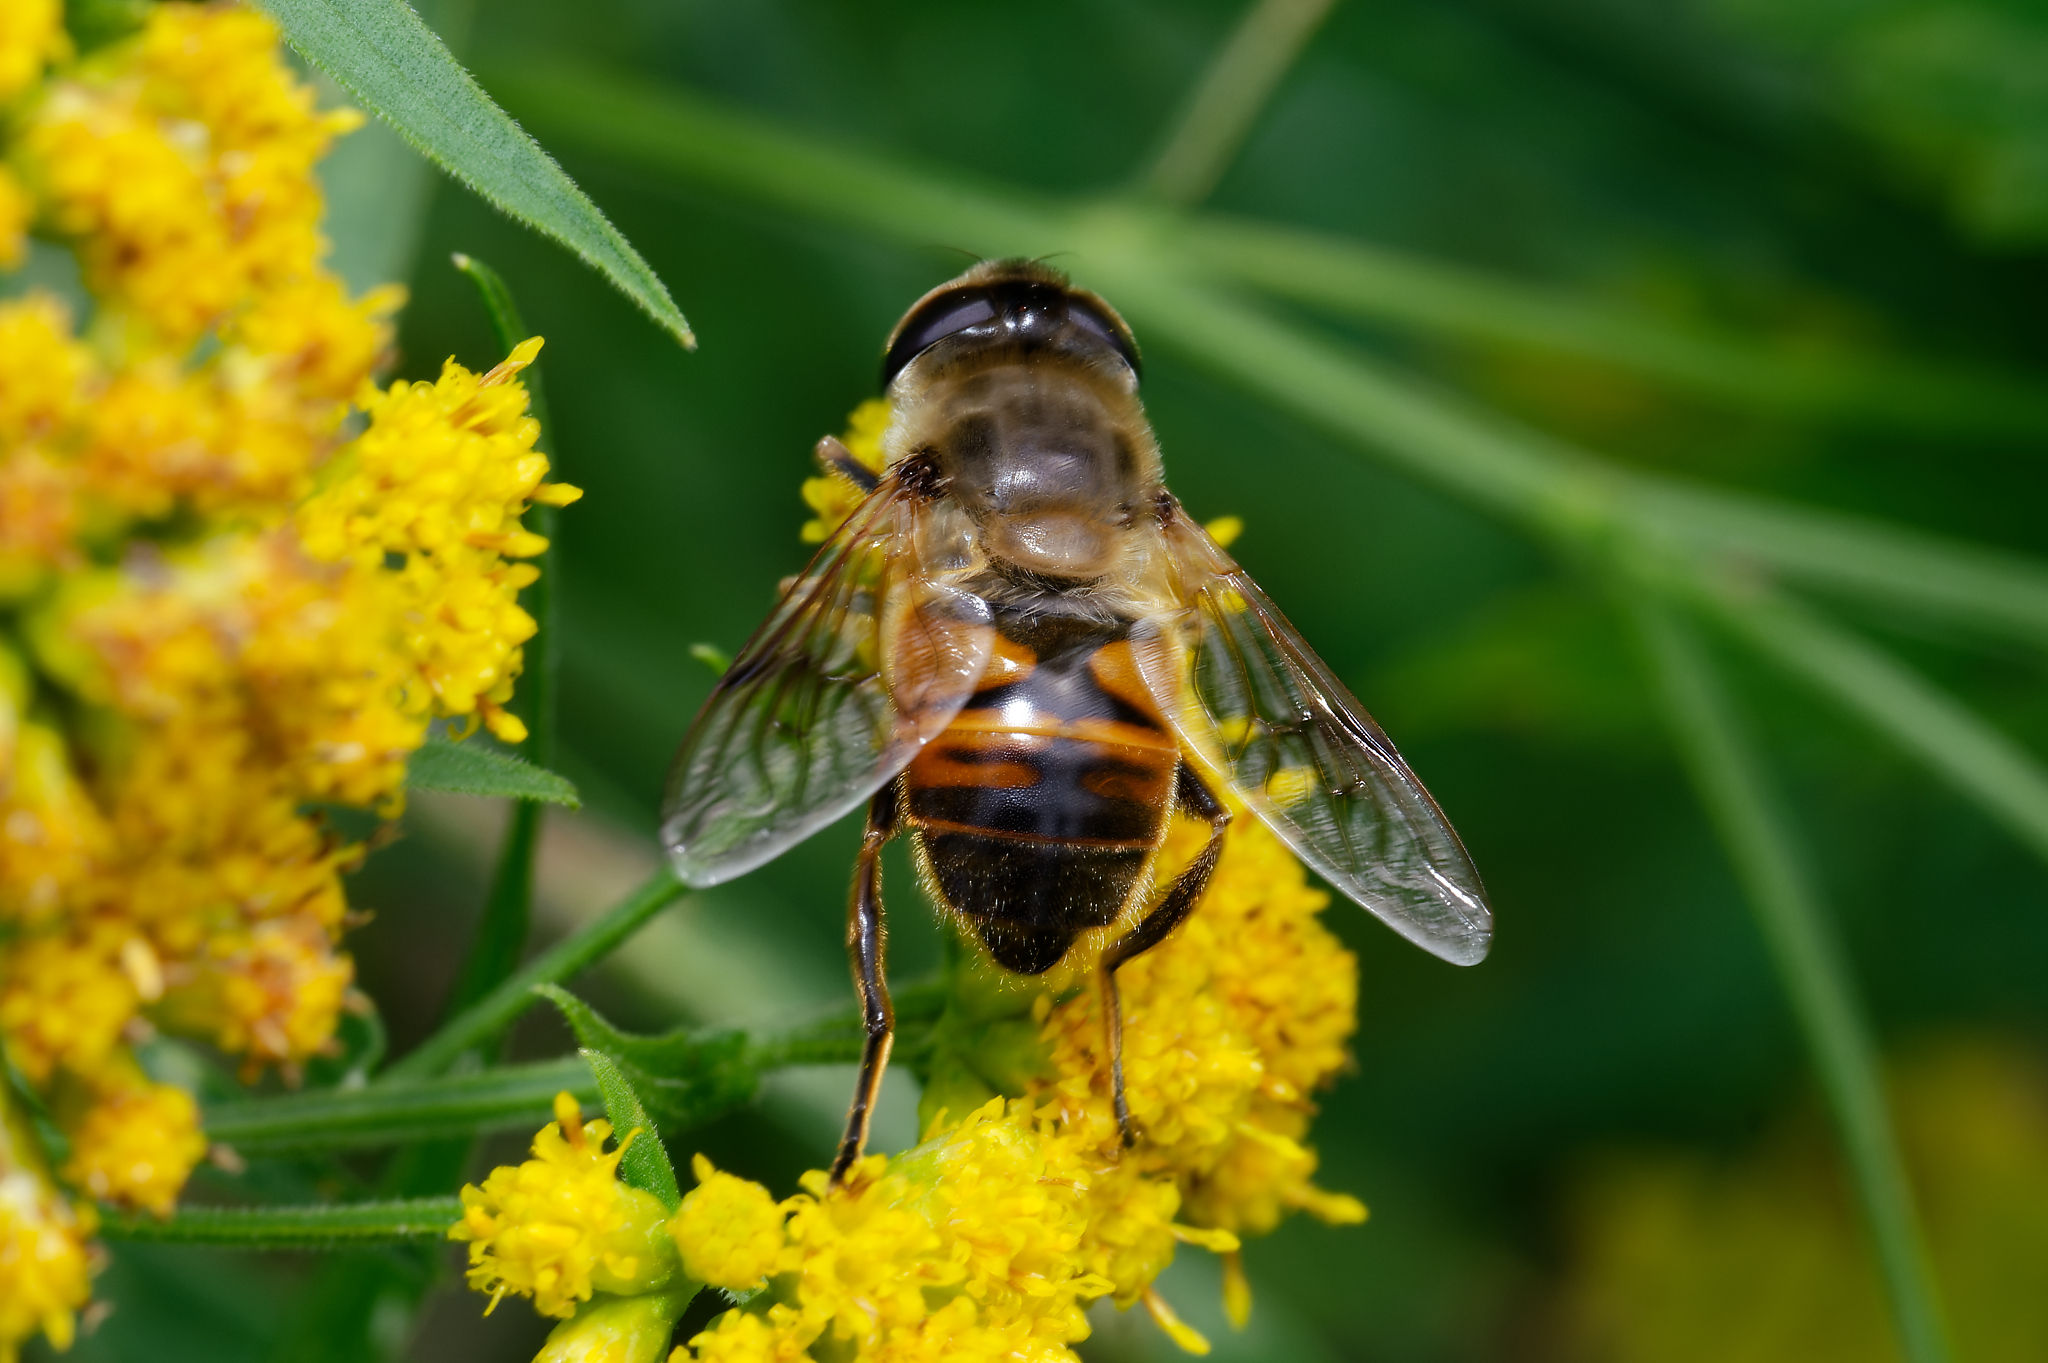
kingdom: Animalia
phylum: Arthropoda
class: Insecta
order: Diptera
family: Syrphidae
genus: Eristalis
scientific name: Eristalis tenax
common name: Drone fly
